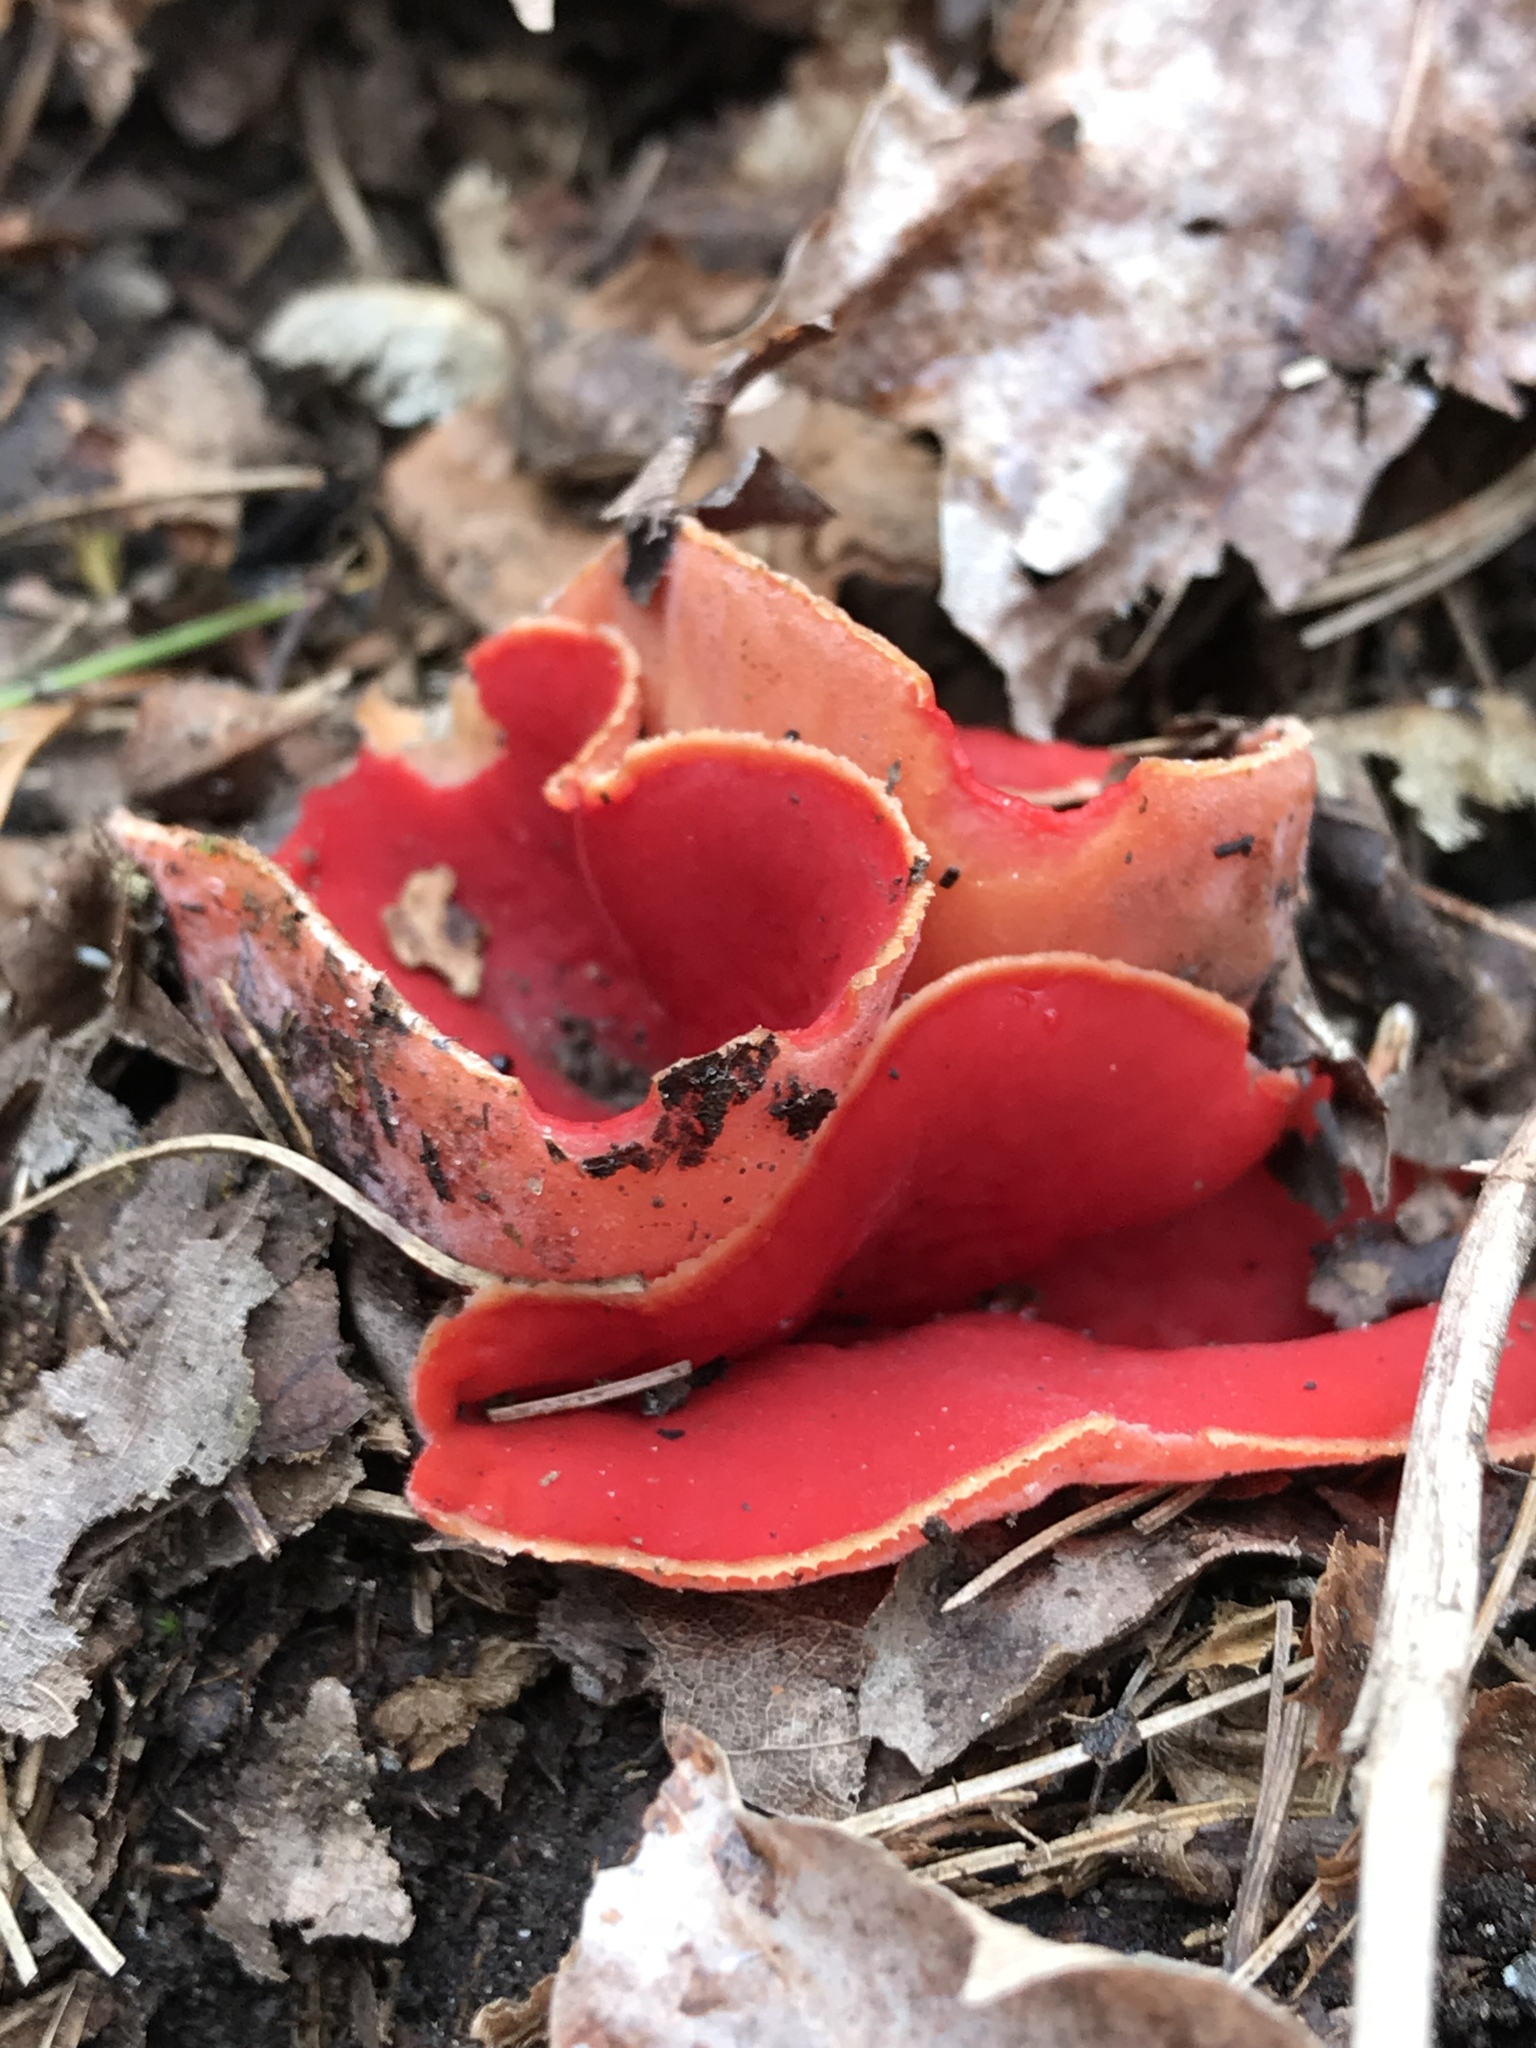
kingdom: Fungi
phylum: Ascomycota
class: Pezizomycetes
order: Pezizales
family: Sarcoscyphaceae
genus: Sarcoscypha
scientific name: Sarcoscypha austriaca
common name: Scarlet elfcup
